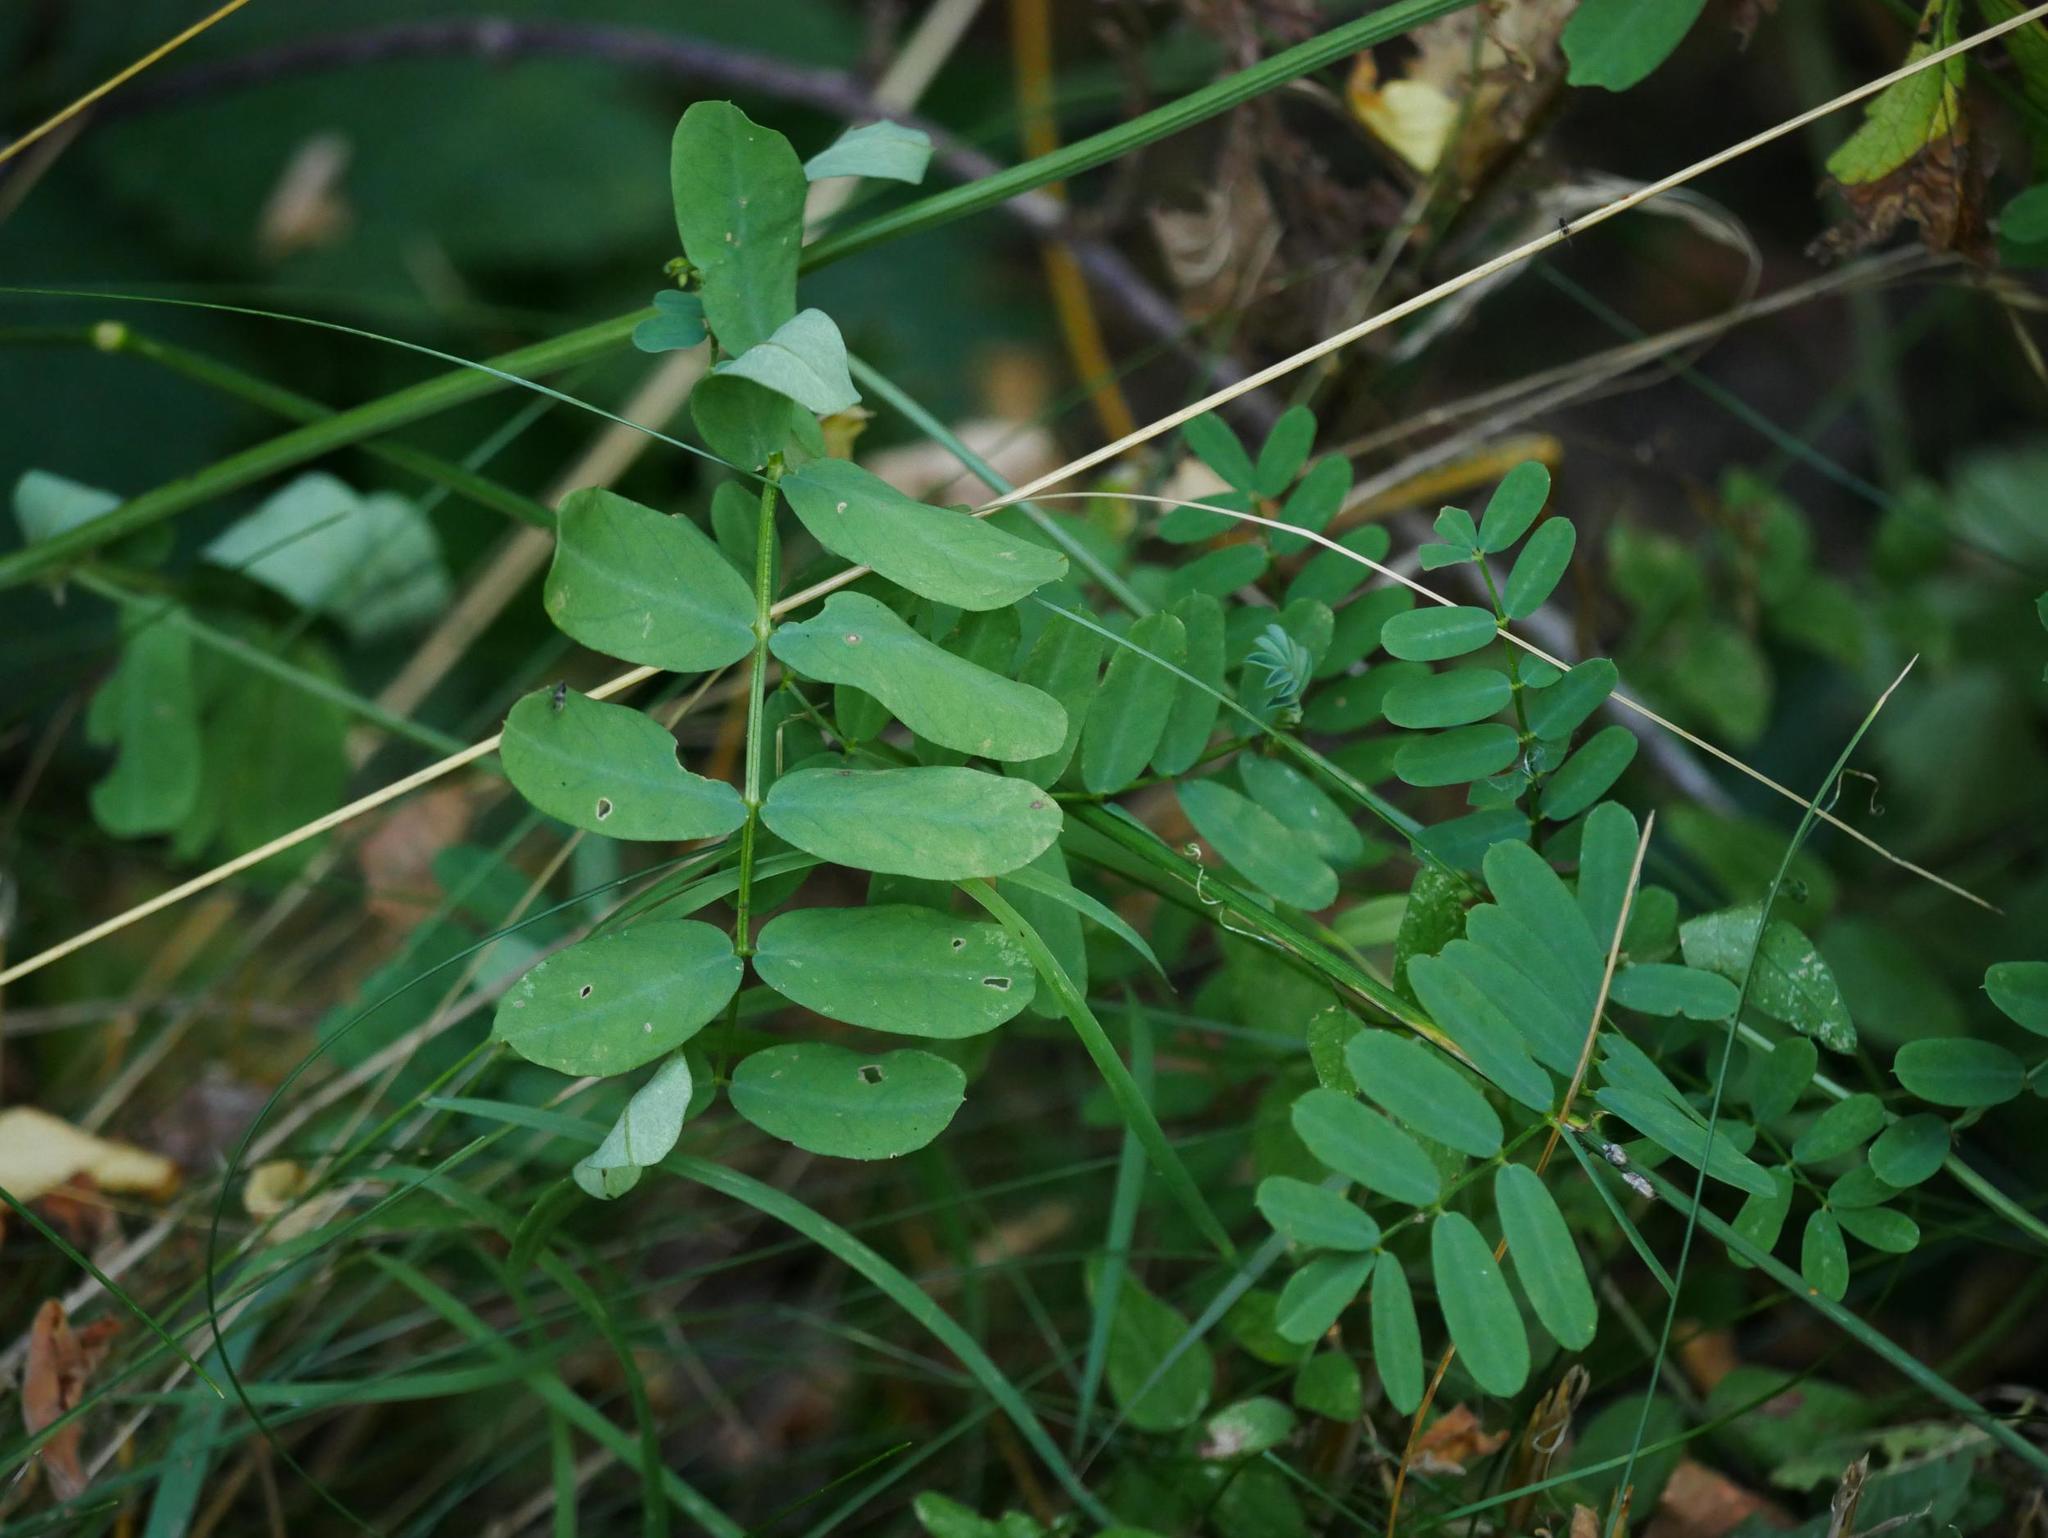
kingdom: Plantae
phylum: Tracheophyta
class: Magnoliopsida
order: Fabales
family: Fabaceae
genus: Coronilla
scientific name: Coronilla varia
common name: Crownvetch
